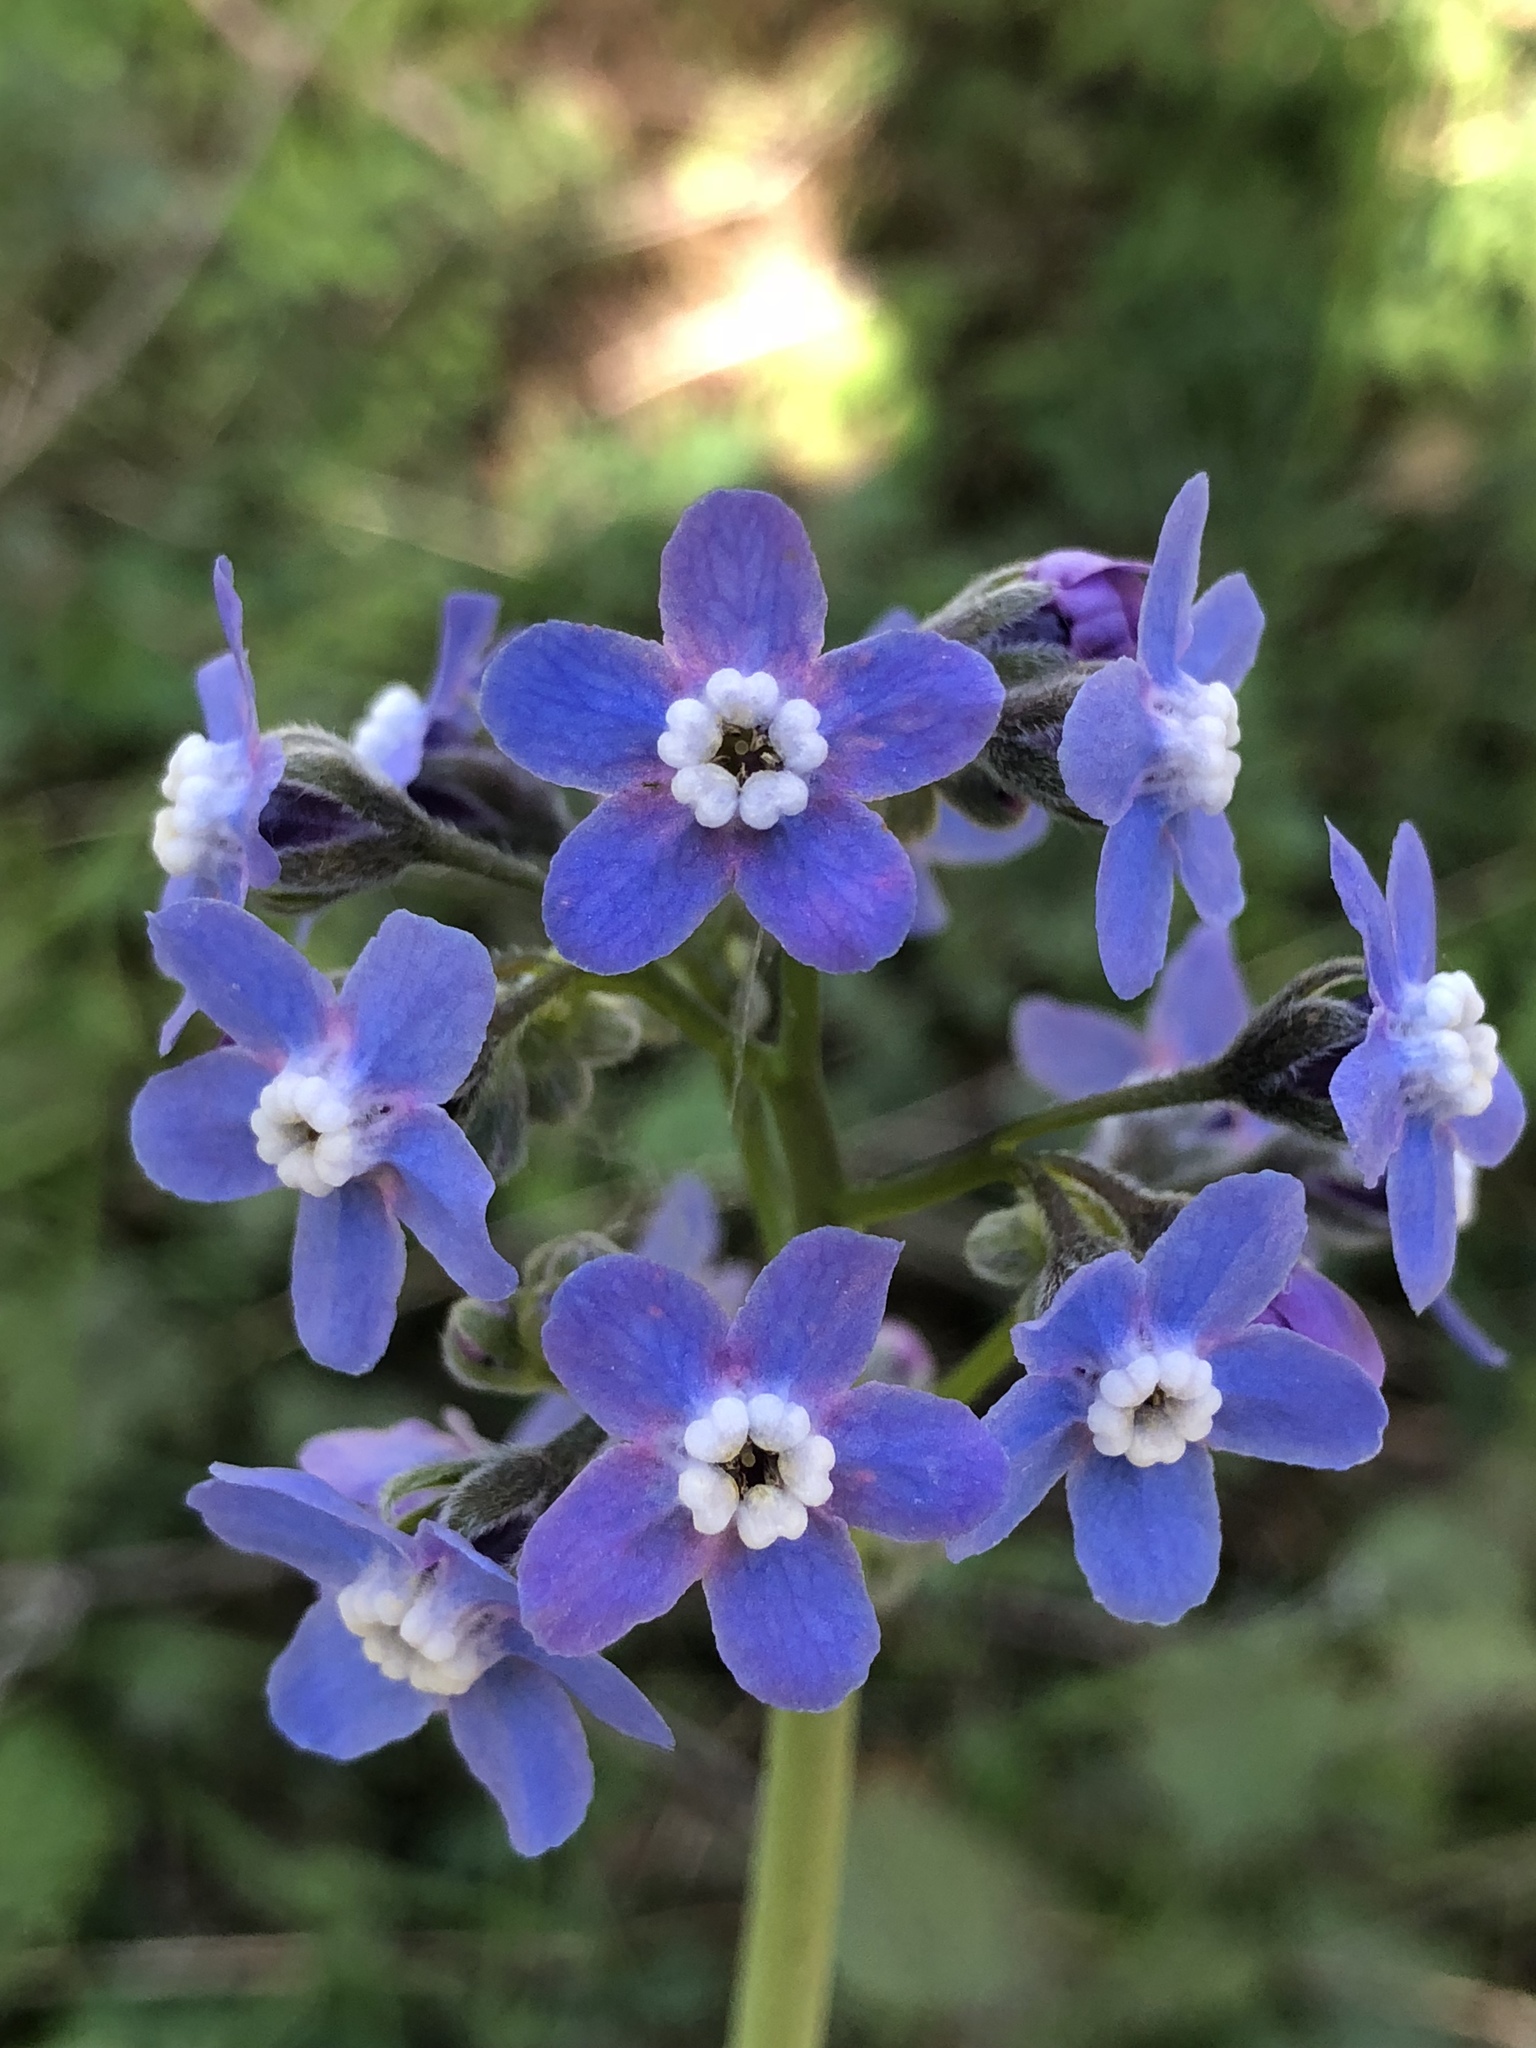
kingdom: Plantae
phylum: Tracheophyta
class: Magnoliopsida
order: Boraginales
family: Boraginaceae
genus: Adelinia
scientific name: Adelinia grande
